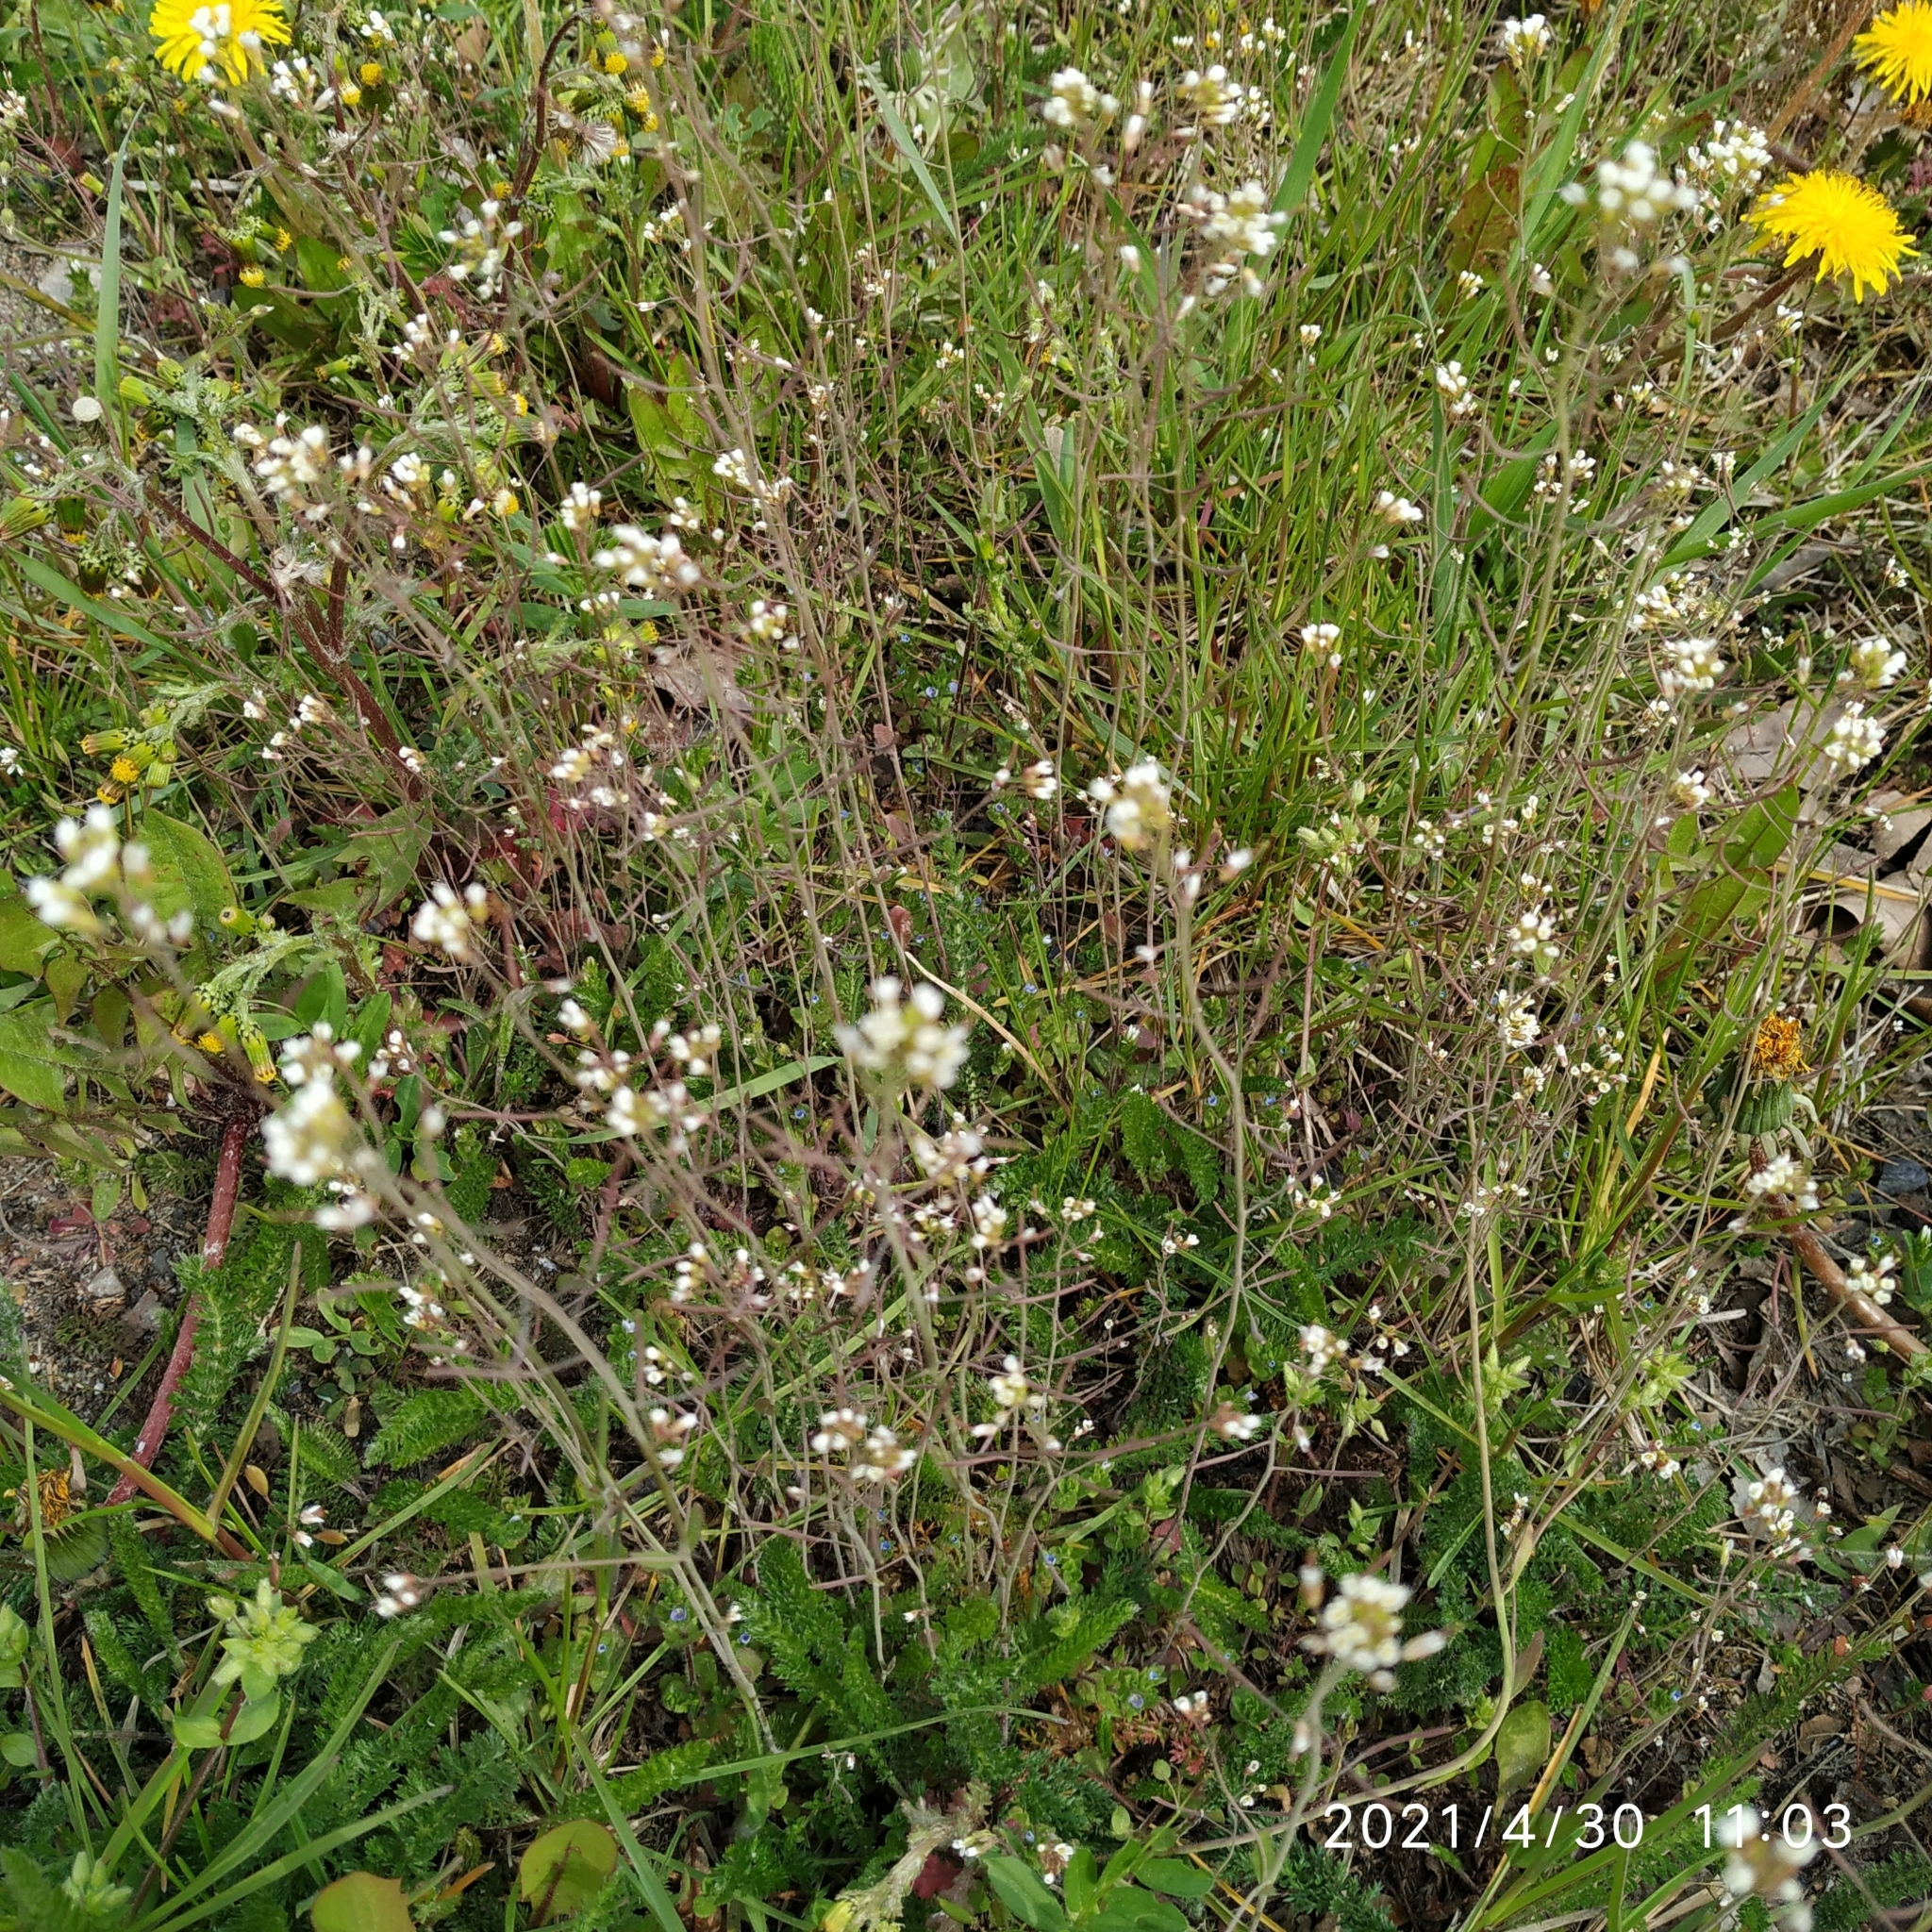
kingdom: Plantae
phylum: Tracheophyta
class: Magnoliopsida
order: Brassicales
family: Brassicaceae
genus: Arabidopsis
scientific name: Arabidopsis thaliana
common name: Thale cress
